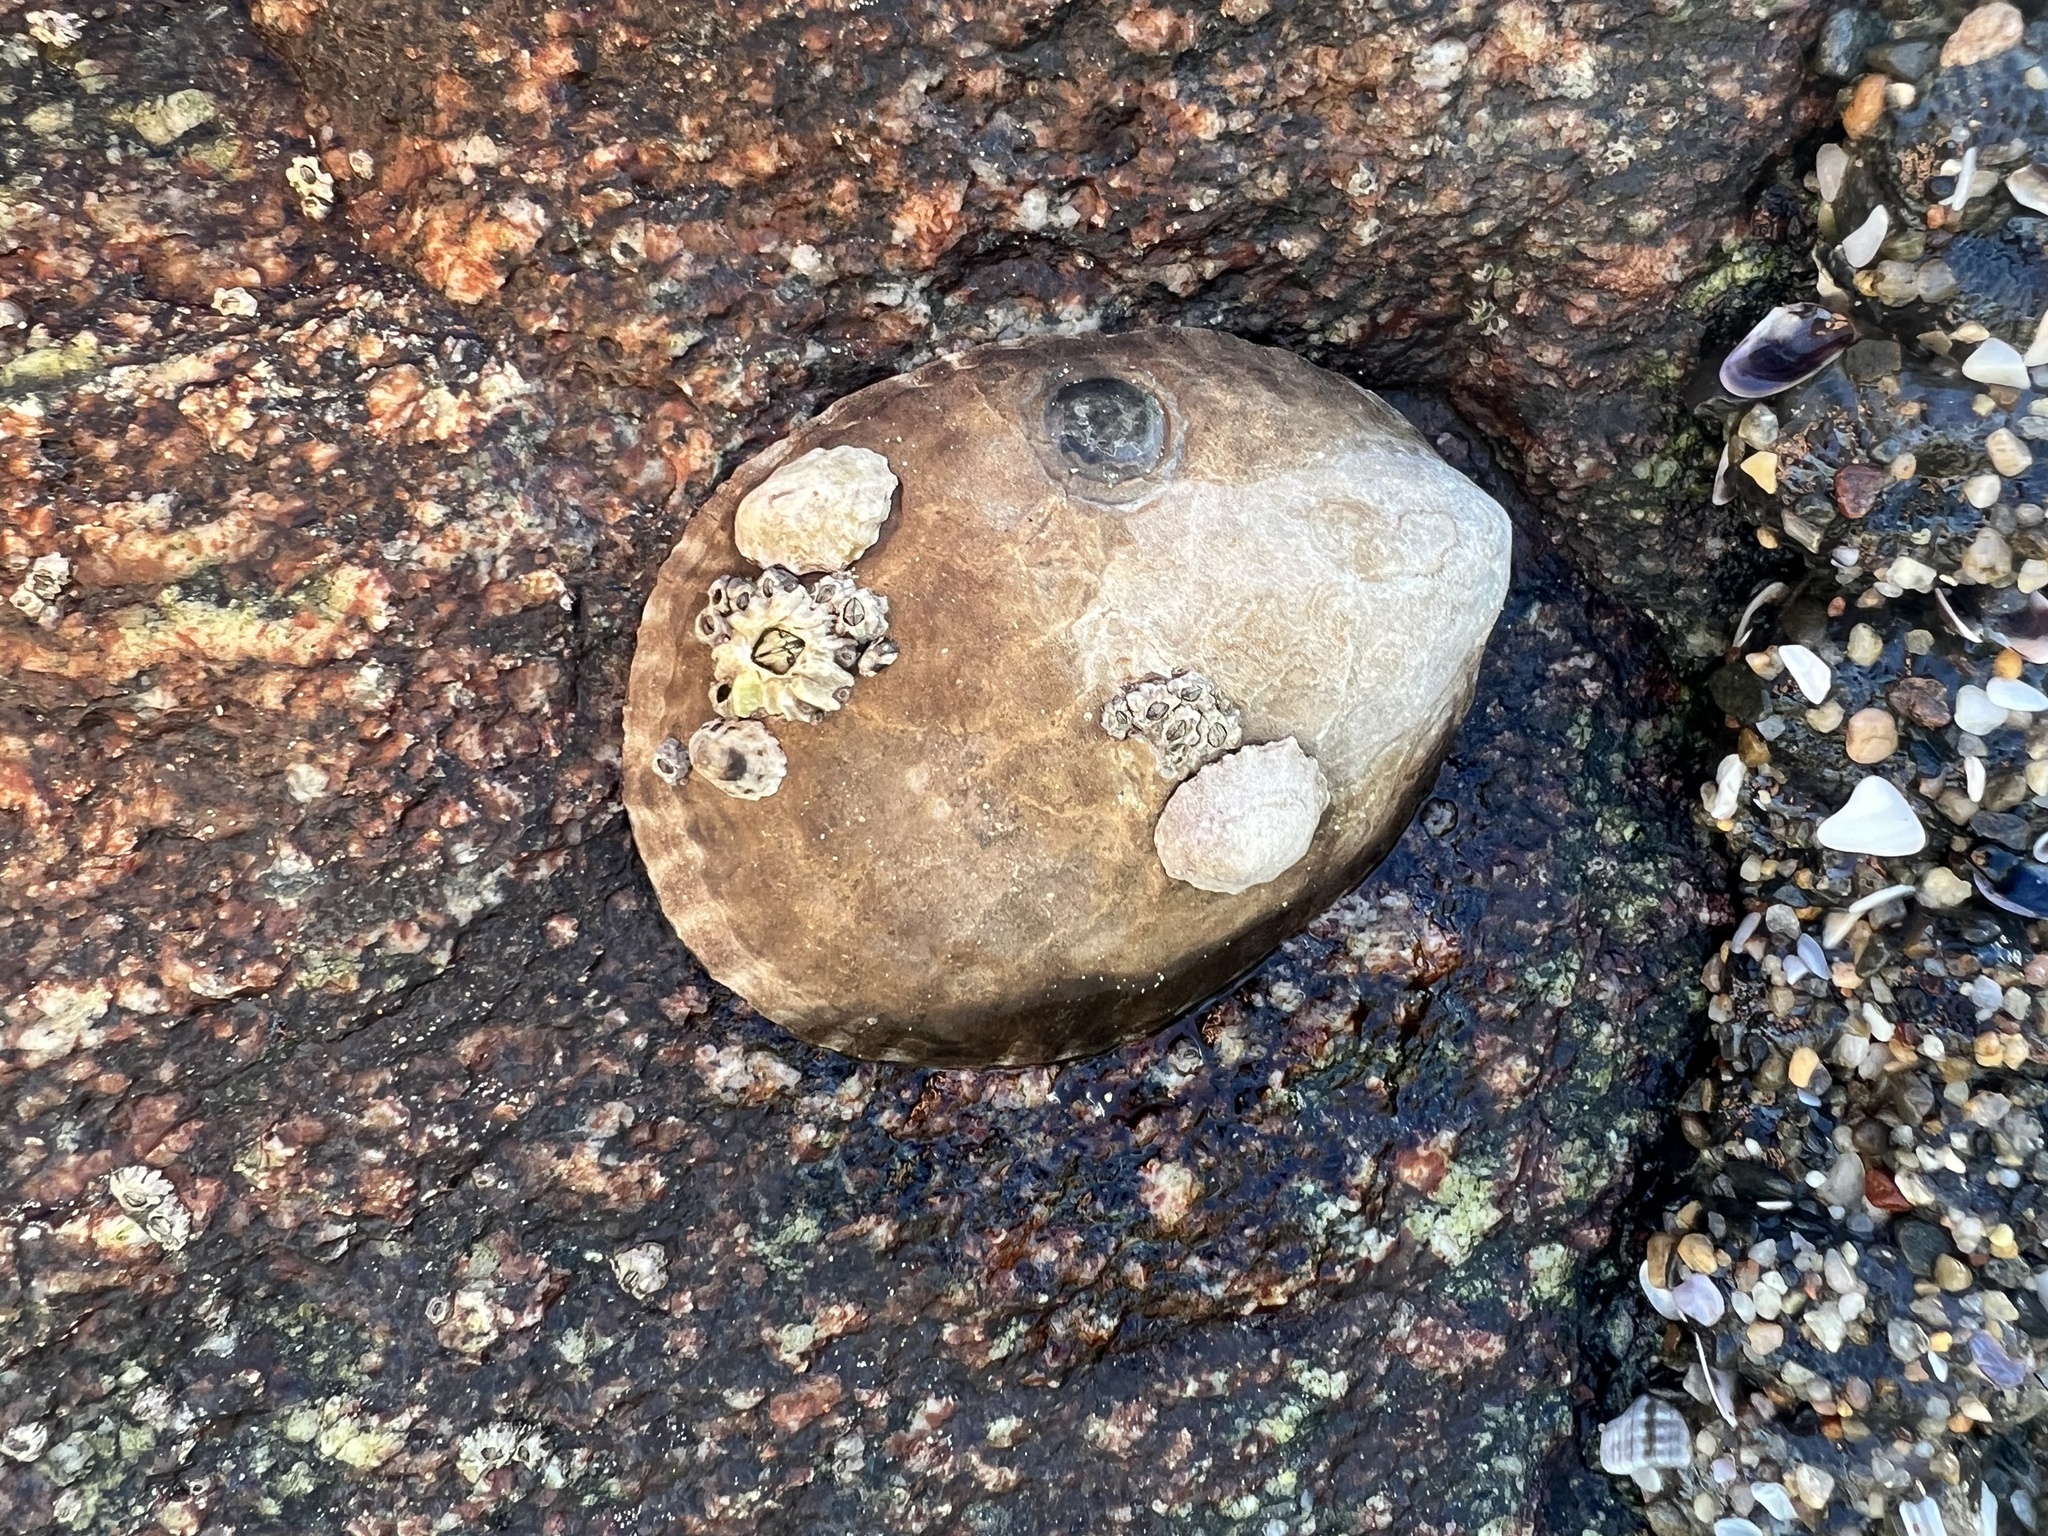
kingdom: Animalia
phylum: Mollusca
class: Gastropoda
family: Lottiidae
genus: Lottia
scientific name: Lottia gigantea
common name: Owl limpet
